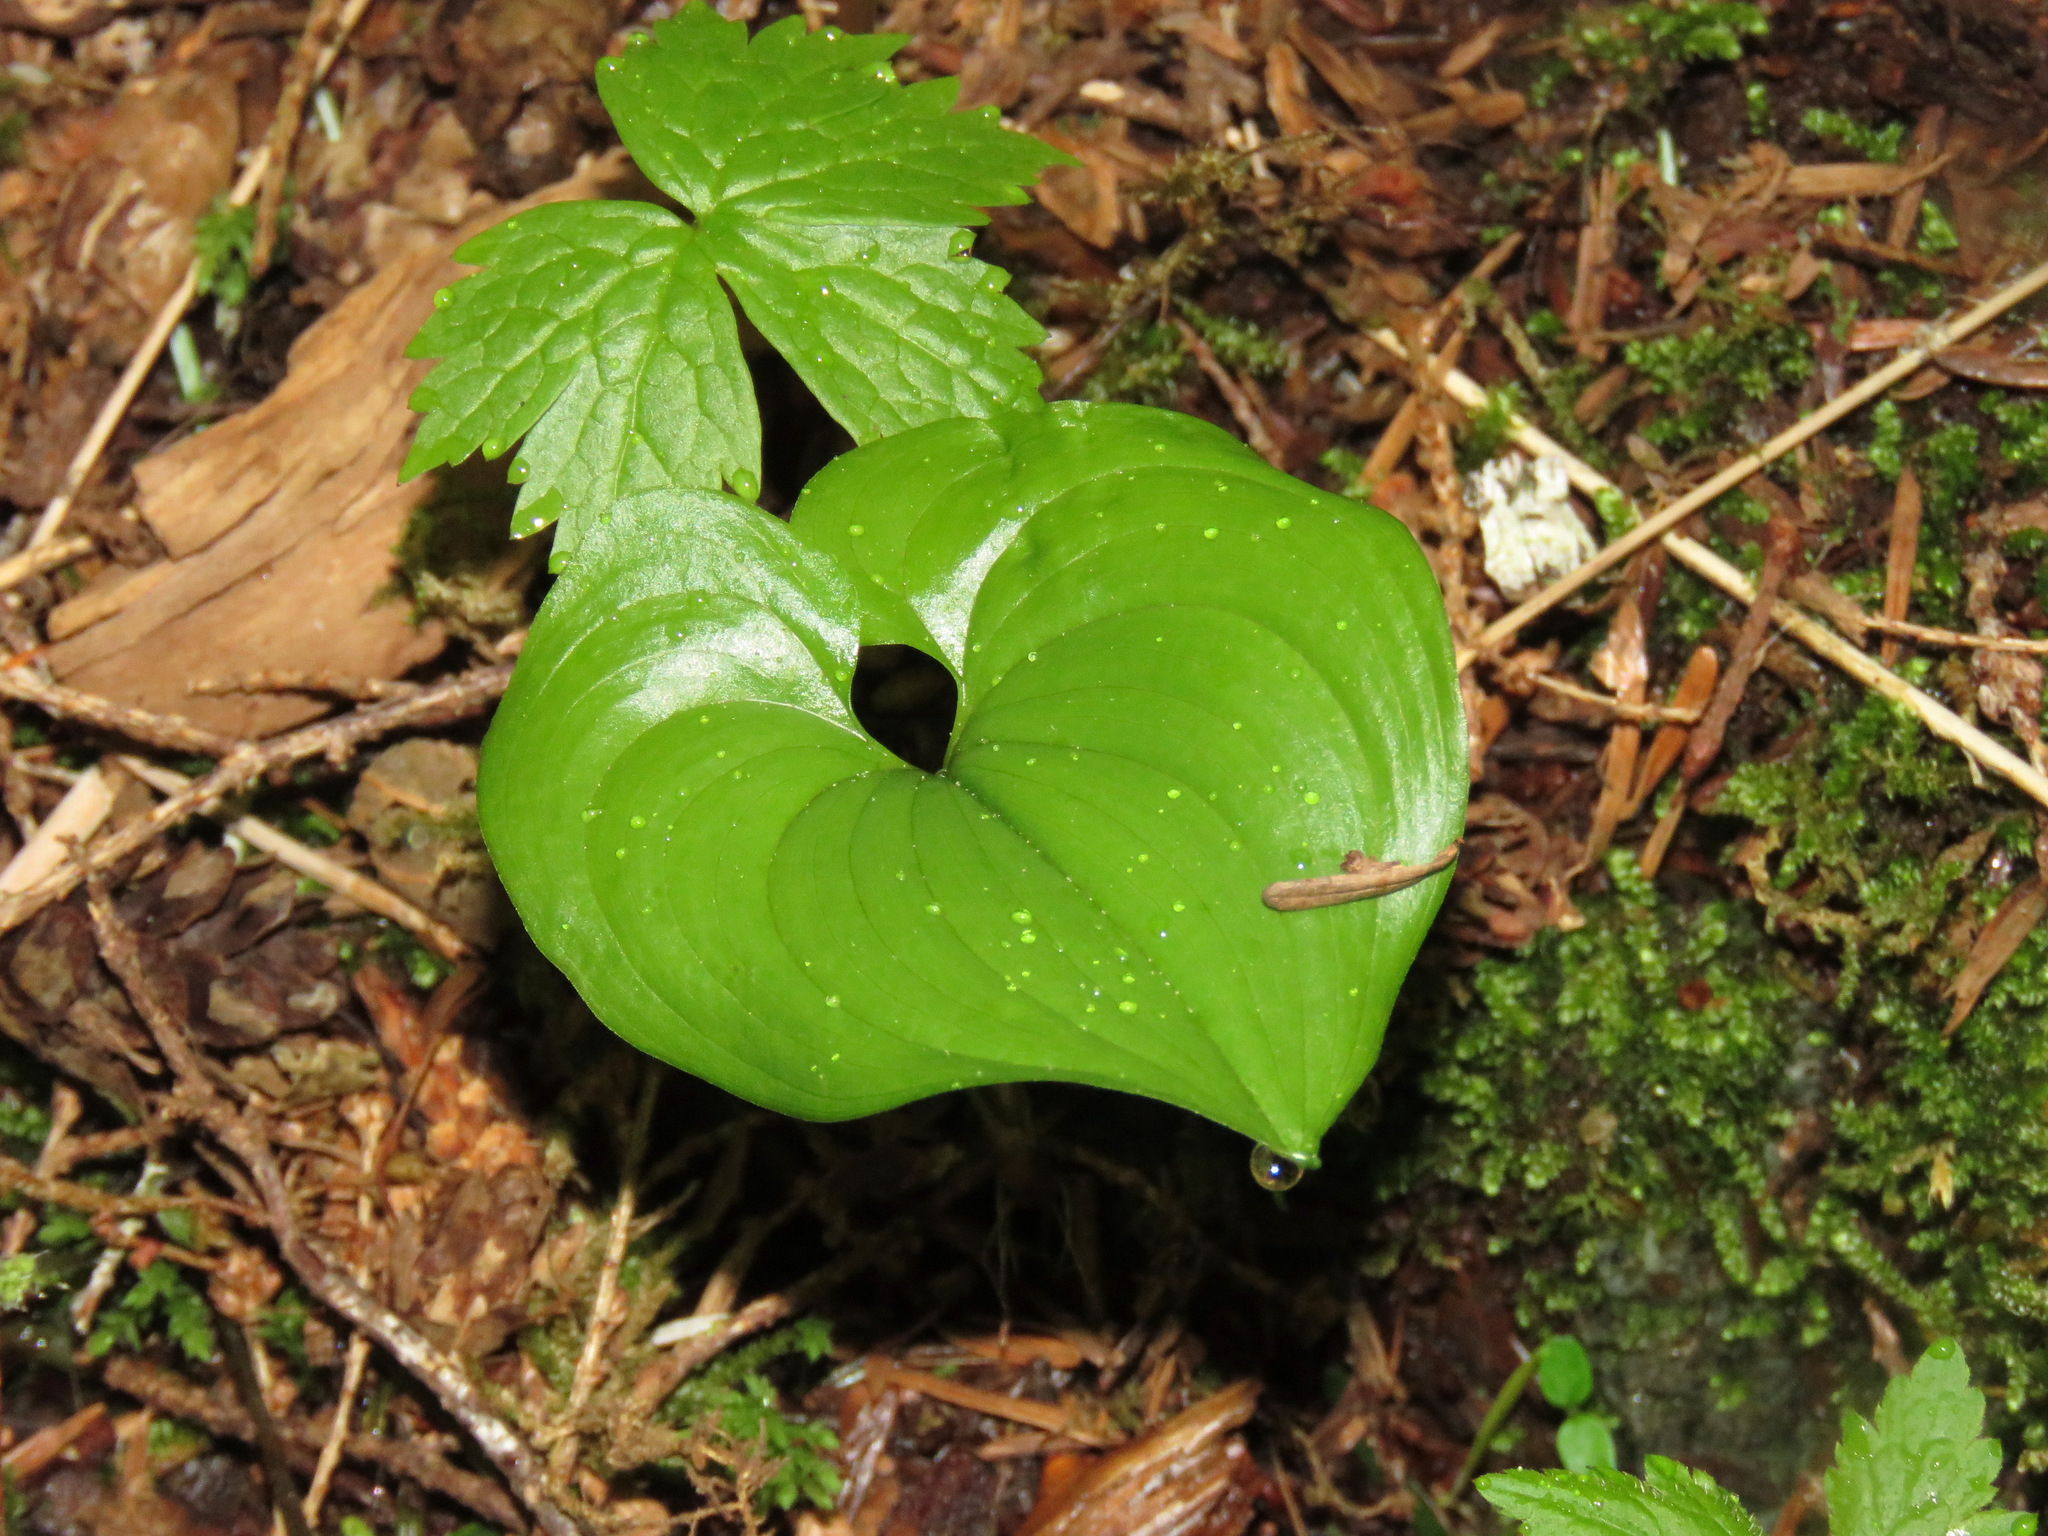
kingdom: Plantae
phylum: Tracheophyta
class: Liliopsida
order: Asparagales
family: Asparagaceae
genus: Maianthemum
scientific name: Maianthemum dilatatum
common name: False lily-of-the-valley
